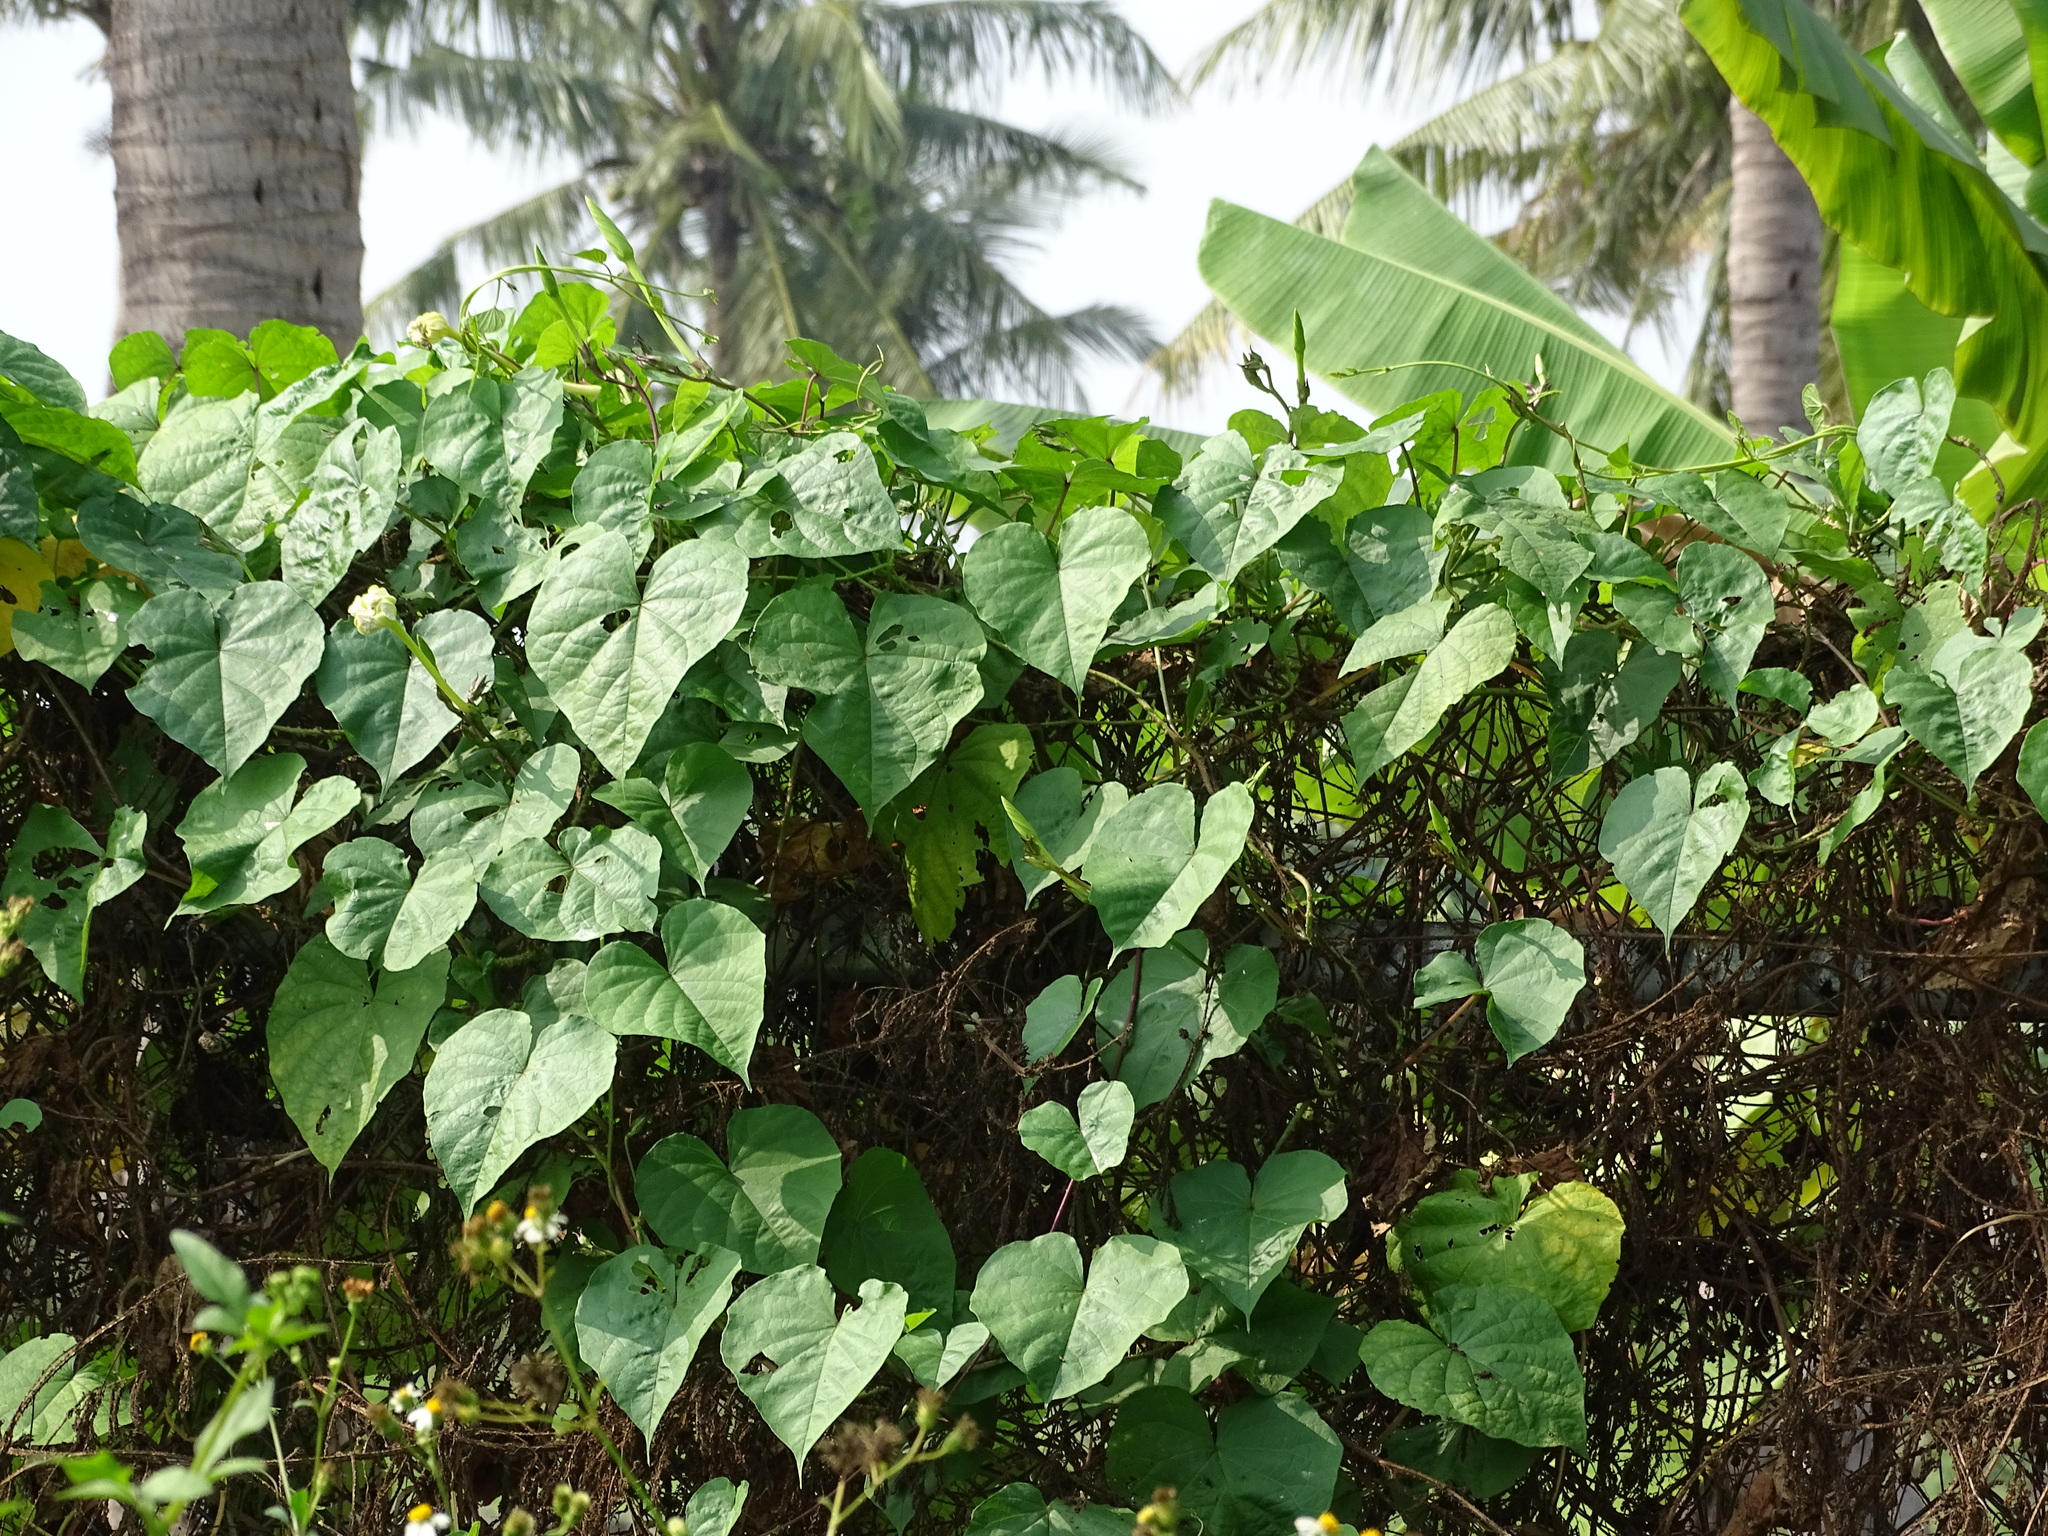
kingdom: Plantae
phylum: Tracheophyta
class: Magnoliopsida
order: Solanales
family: Convolvulaceae
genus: Ipomoea
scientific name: Ipomoea alba
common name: Moonflower
